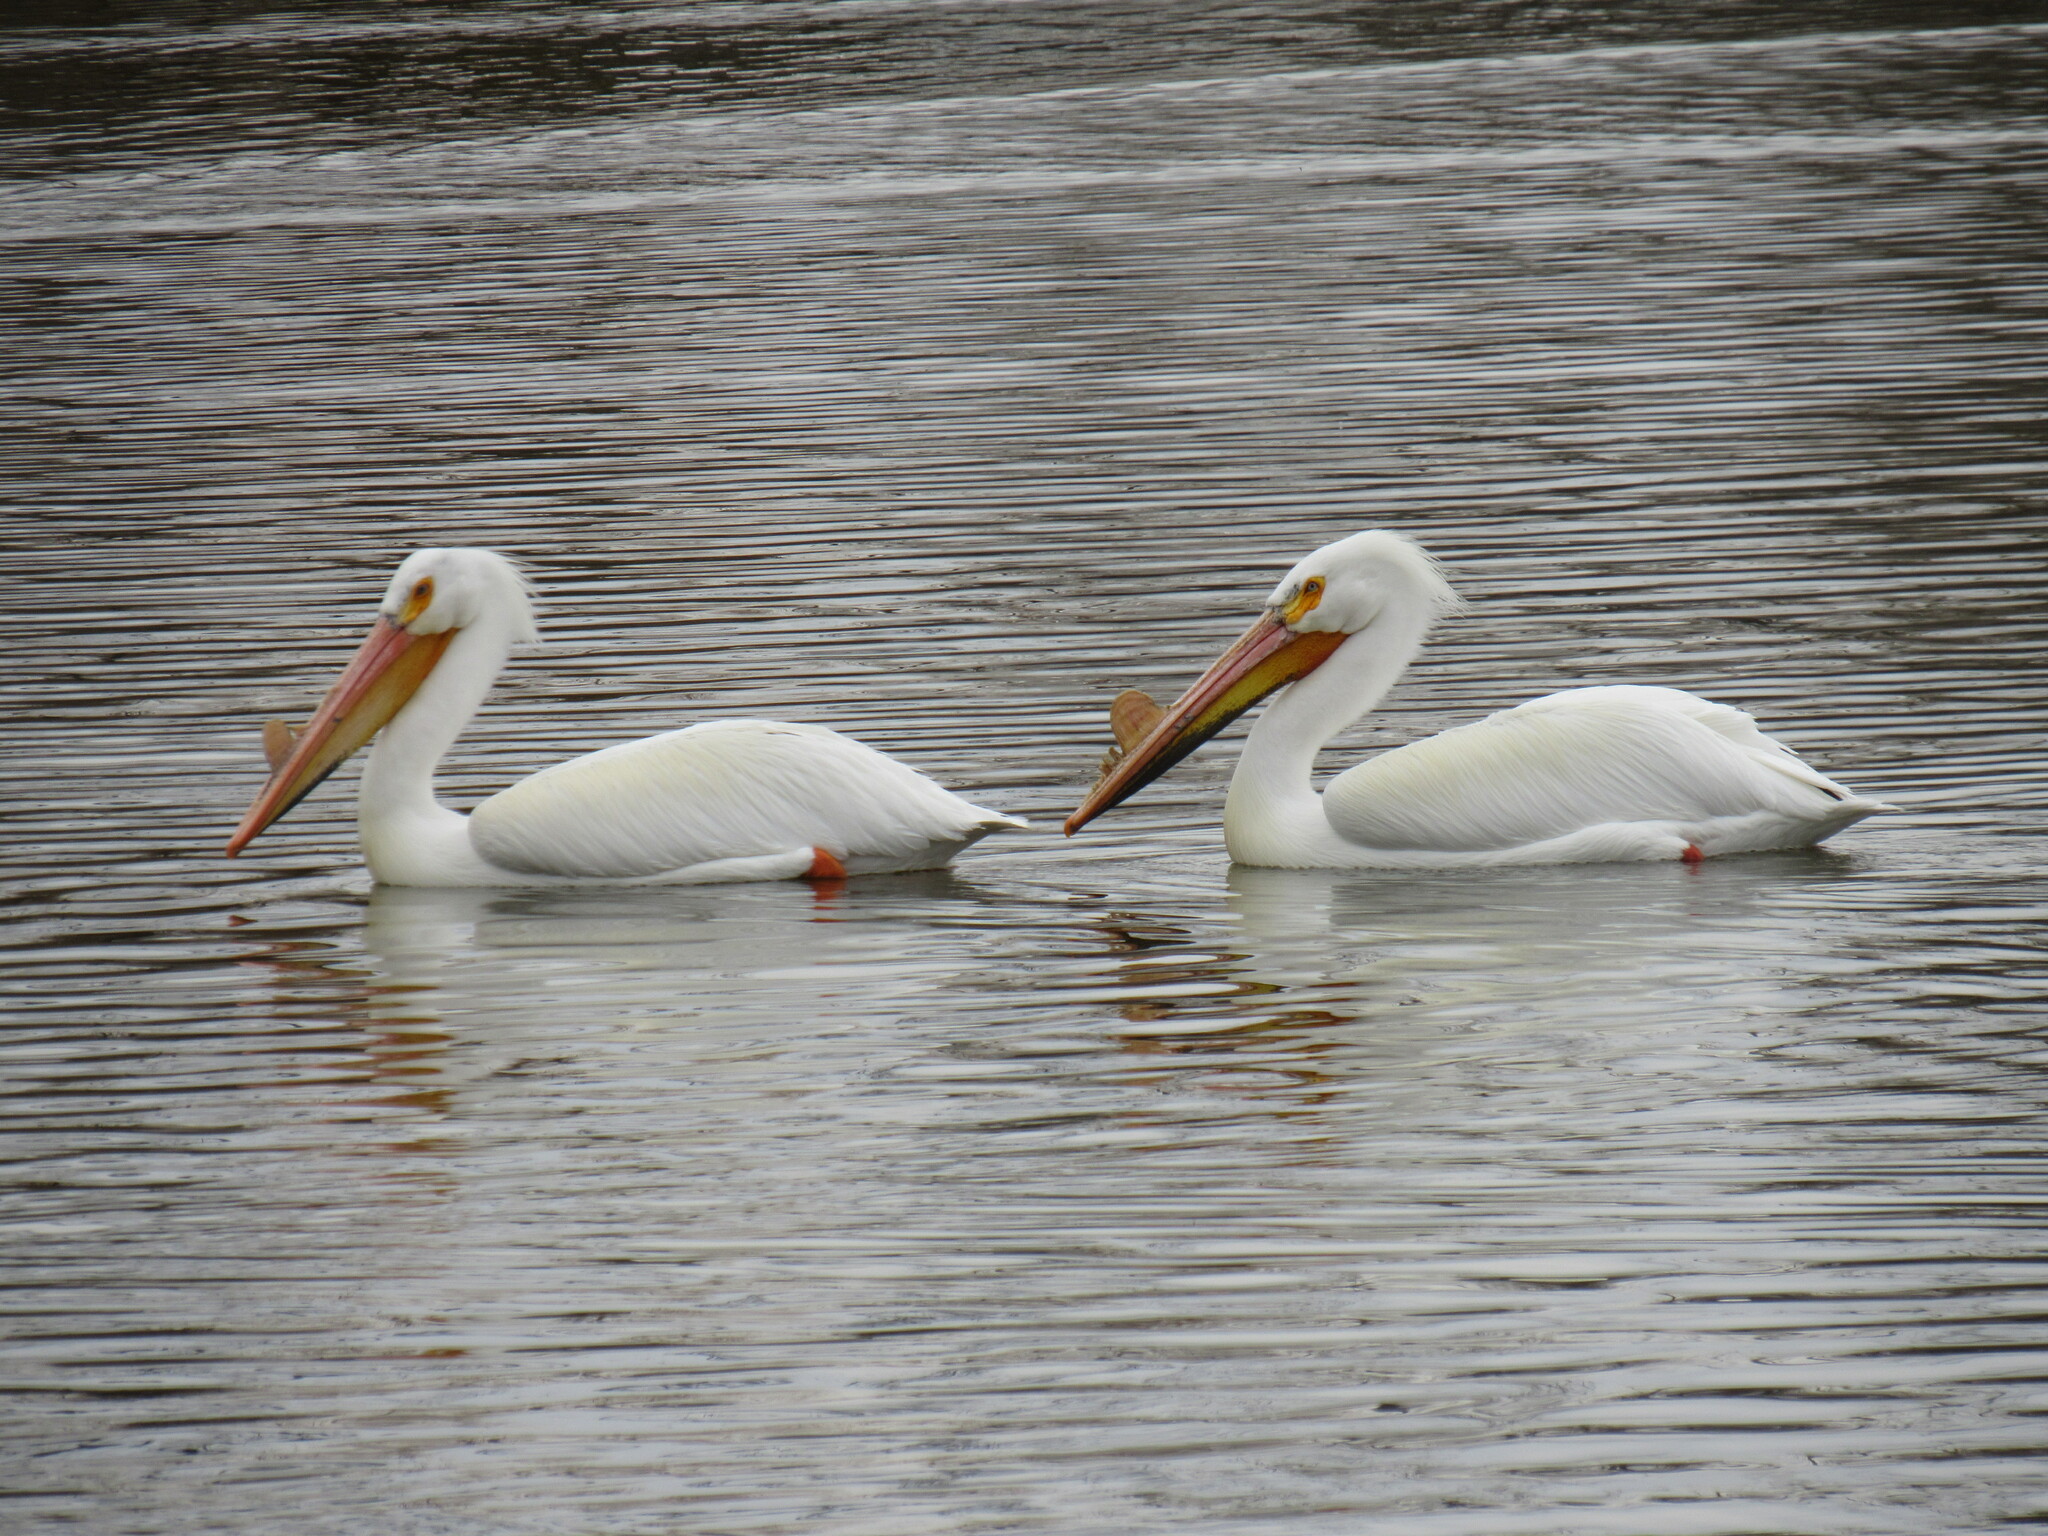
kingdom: Animalia
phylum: Chordata
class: Aves
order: Pelecaniformes
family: Pelecanidae
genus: Pelecanus
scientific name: Pelecanus erythrorhynchos
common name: American white pelican
